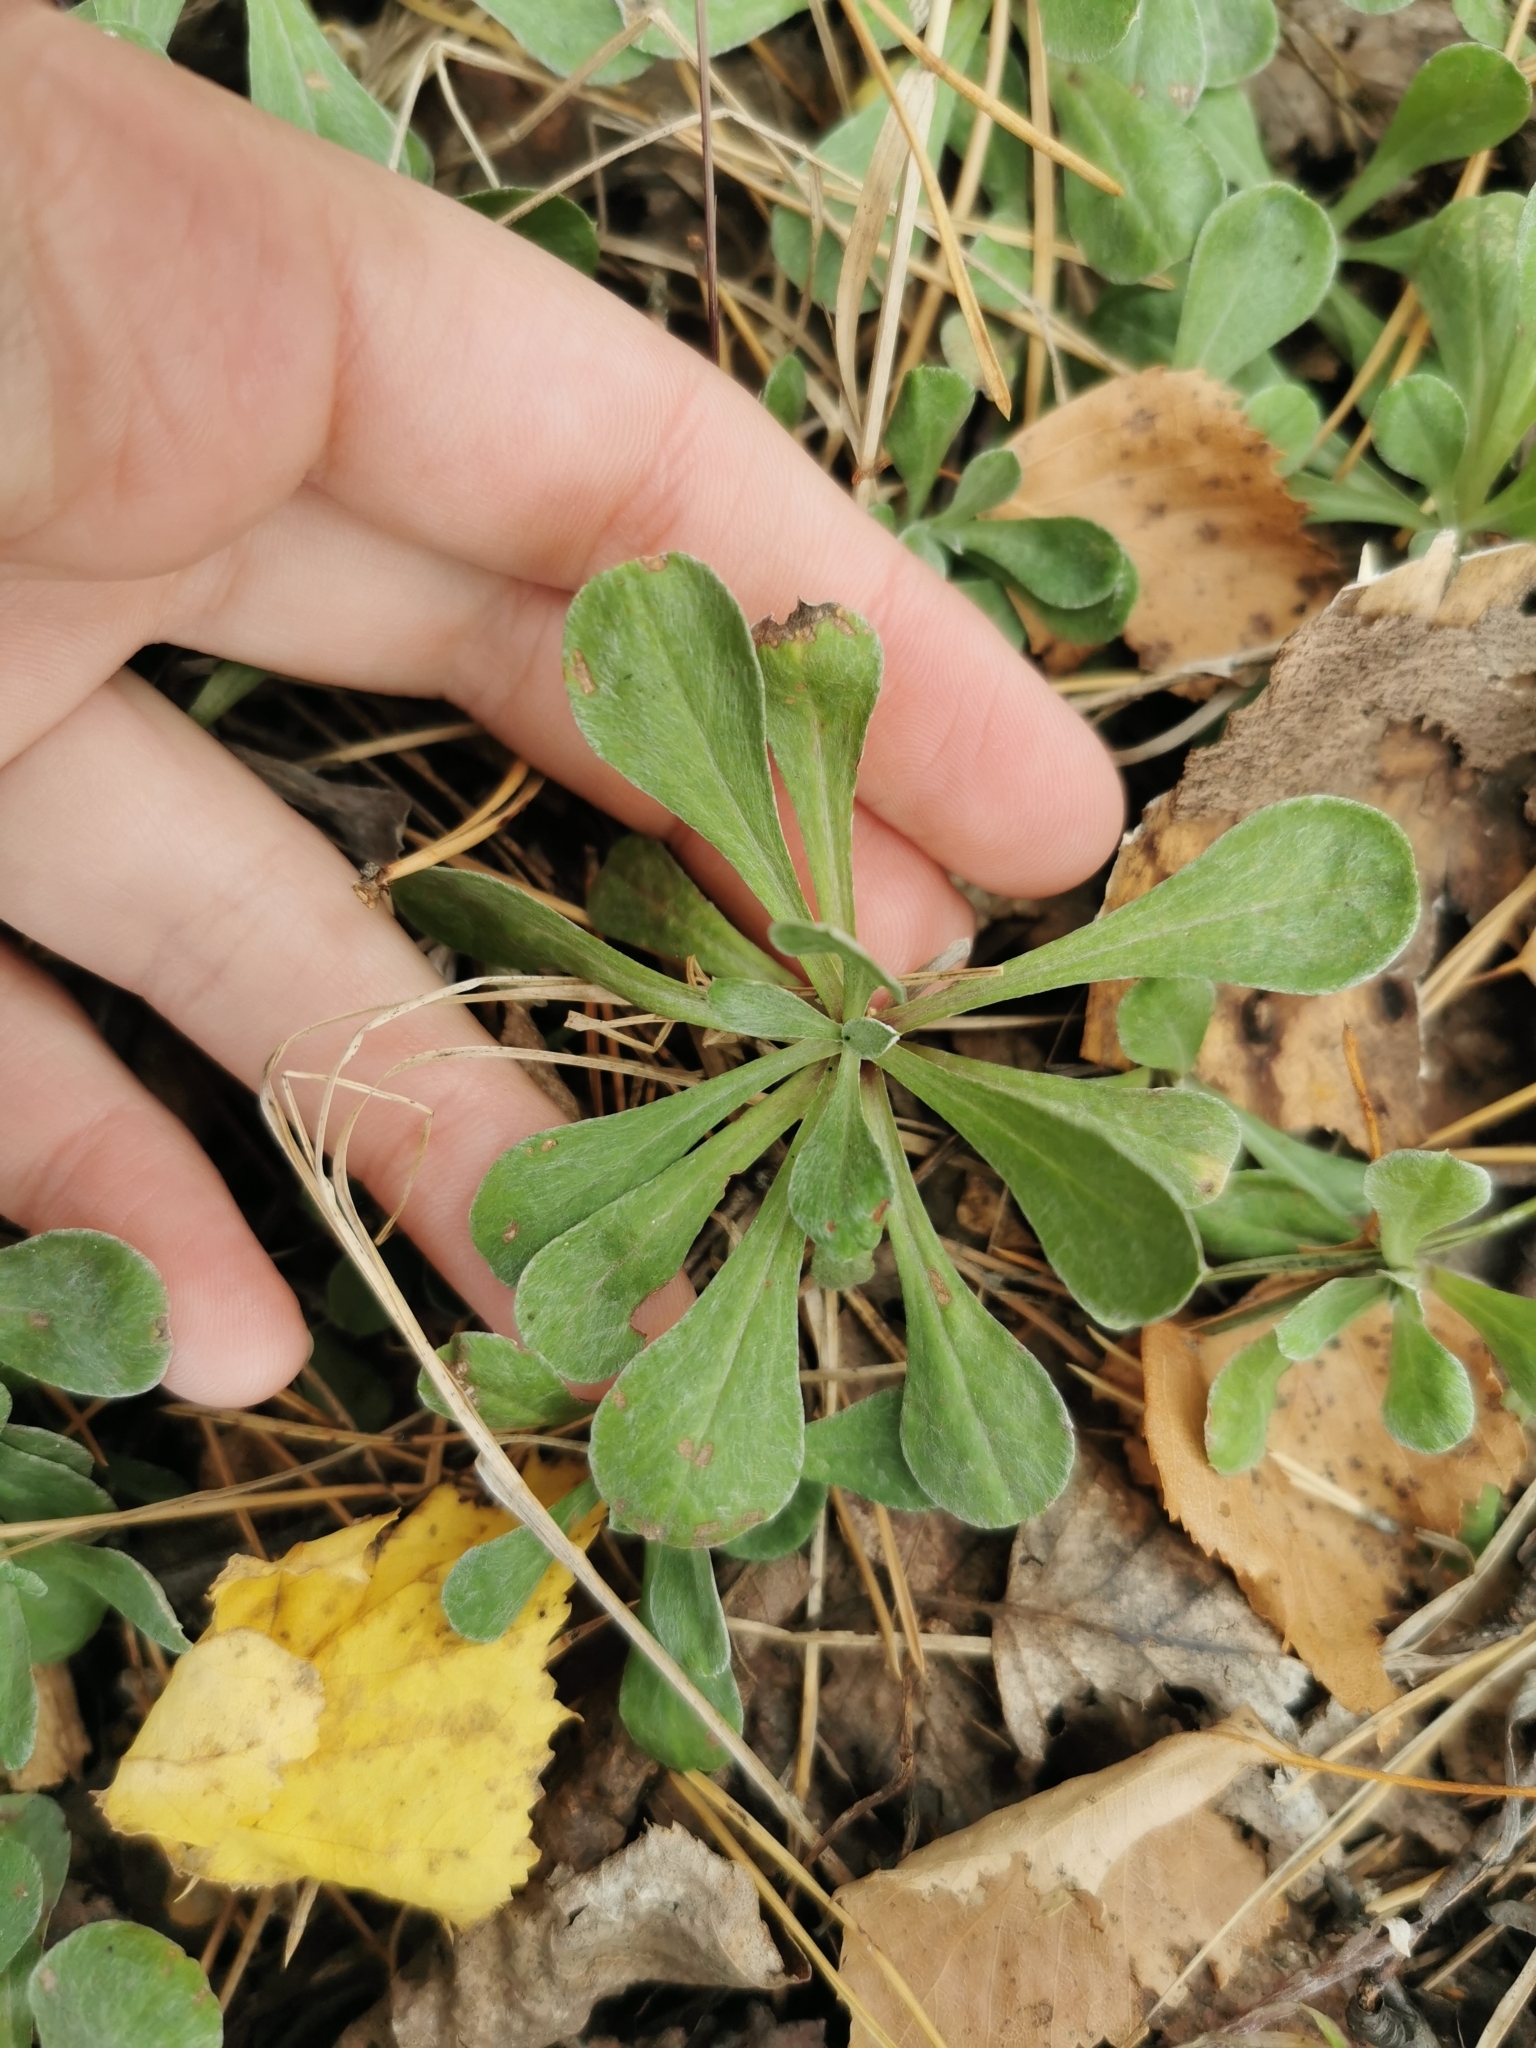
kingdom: Plantae
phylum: Tracheophyta
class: Magnoliopsida
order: Asterales
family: Asteraceae
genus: Antennaria
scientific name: Antennaria dioica
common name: Mountain everlasting
